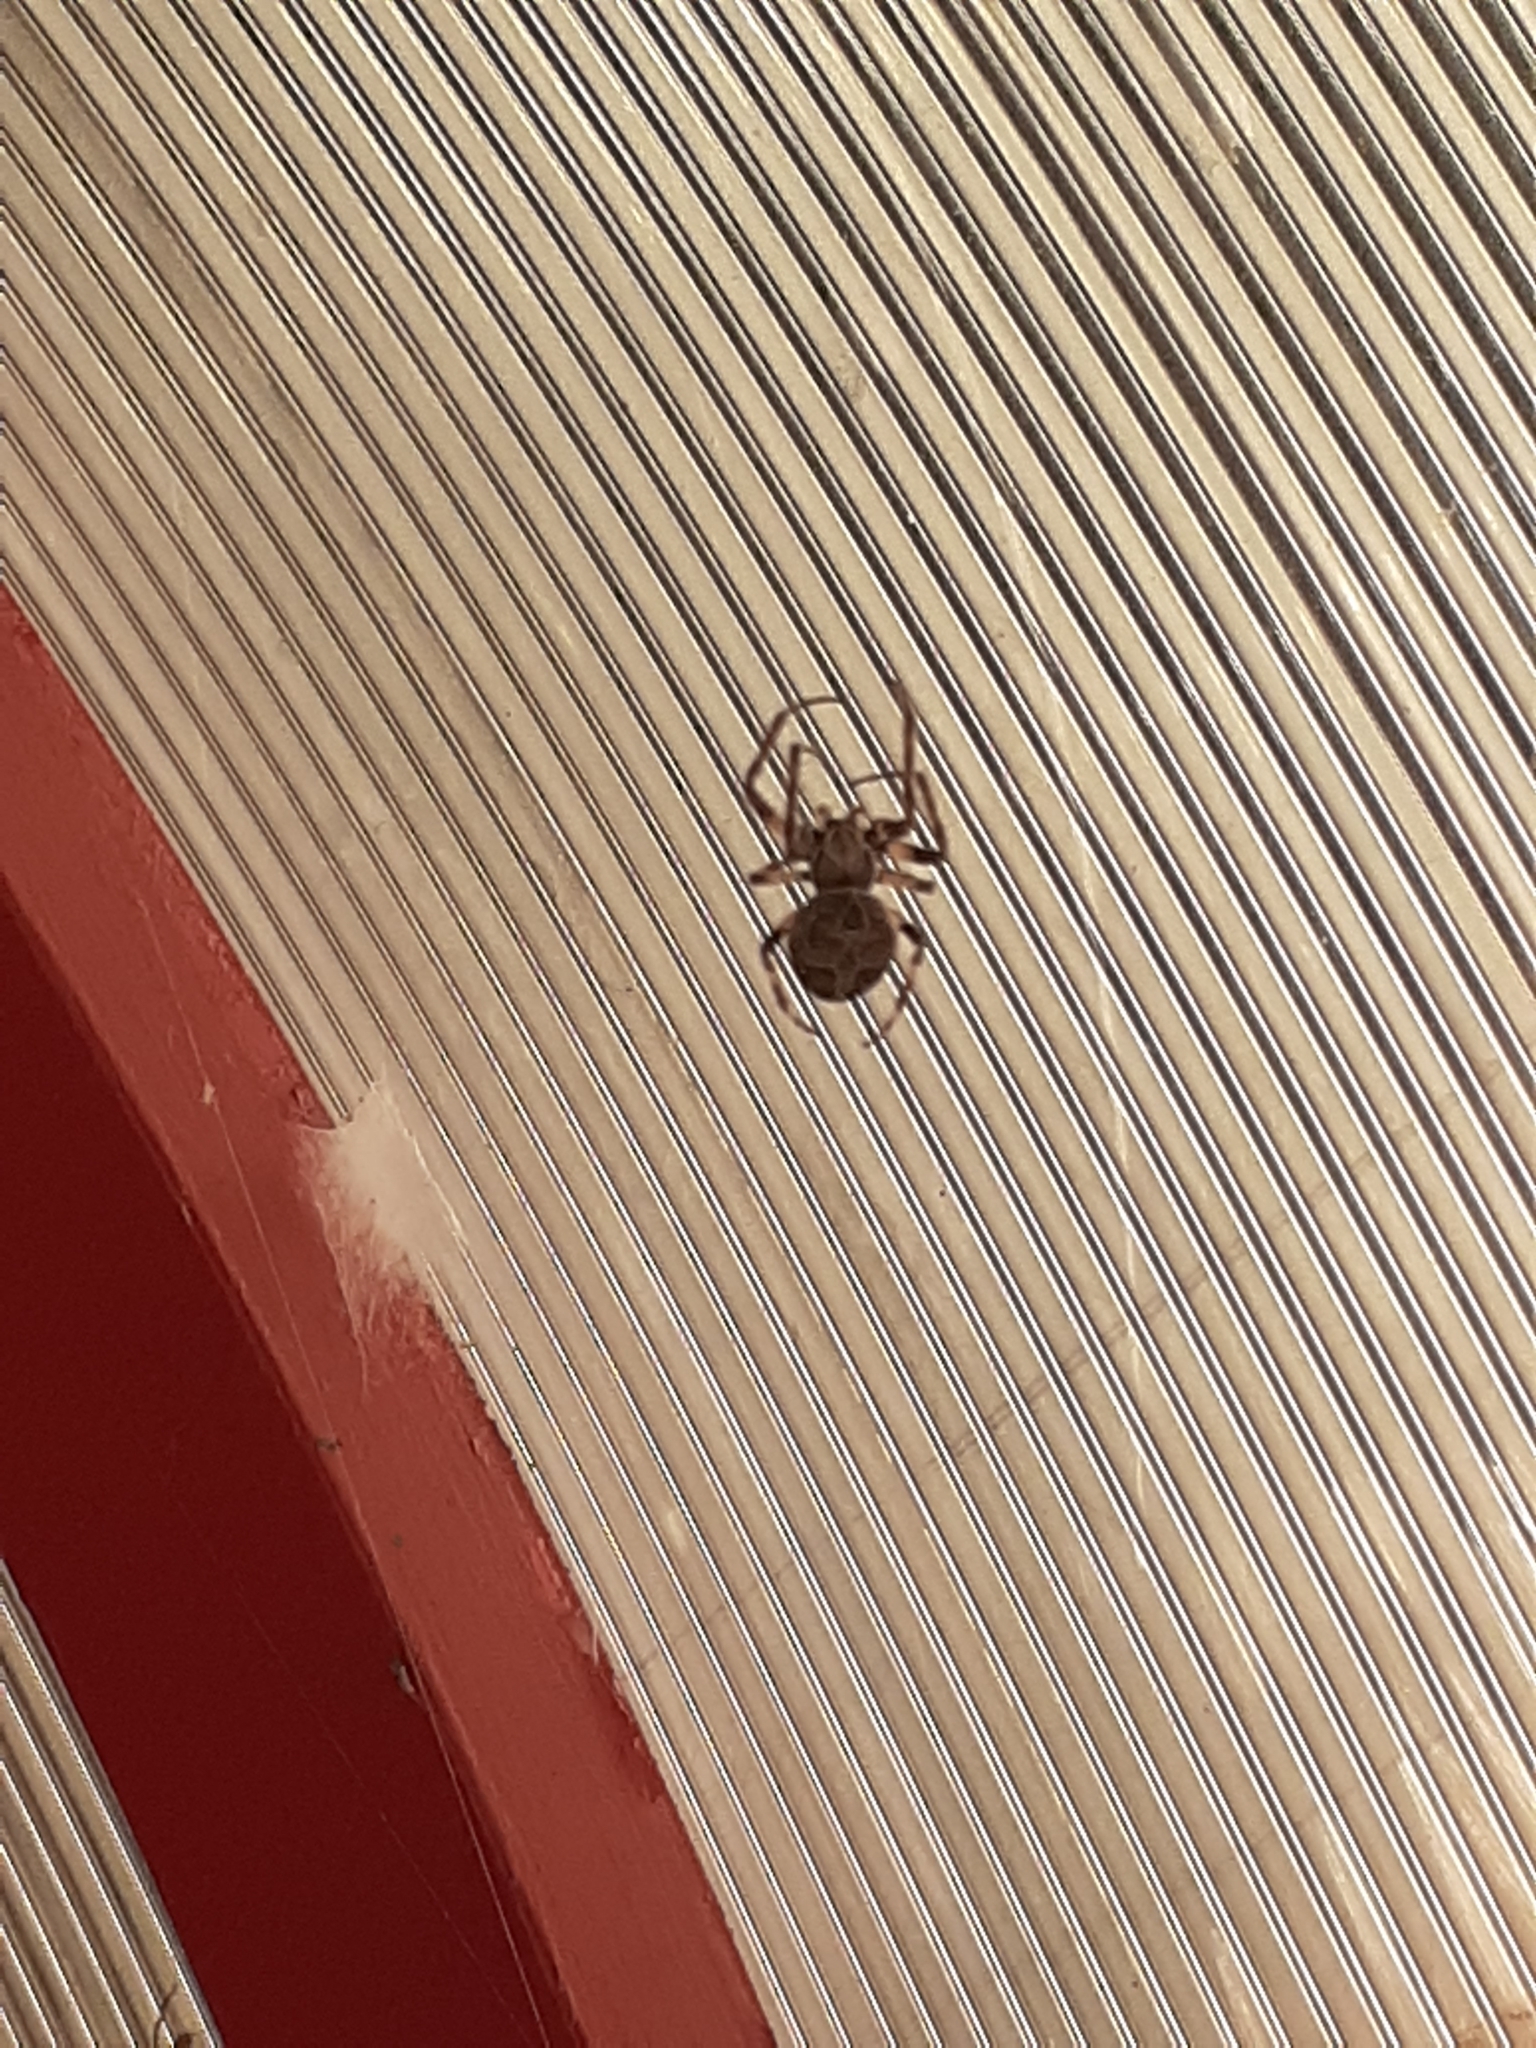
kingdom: Animalia
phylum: Arthropoda
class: Arachnida
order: Araneae
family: Araneidae
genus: Larinioides
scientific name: Larinioides sclopetarius
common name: Bridge orbweaver
